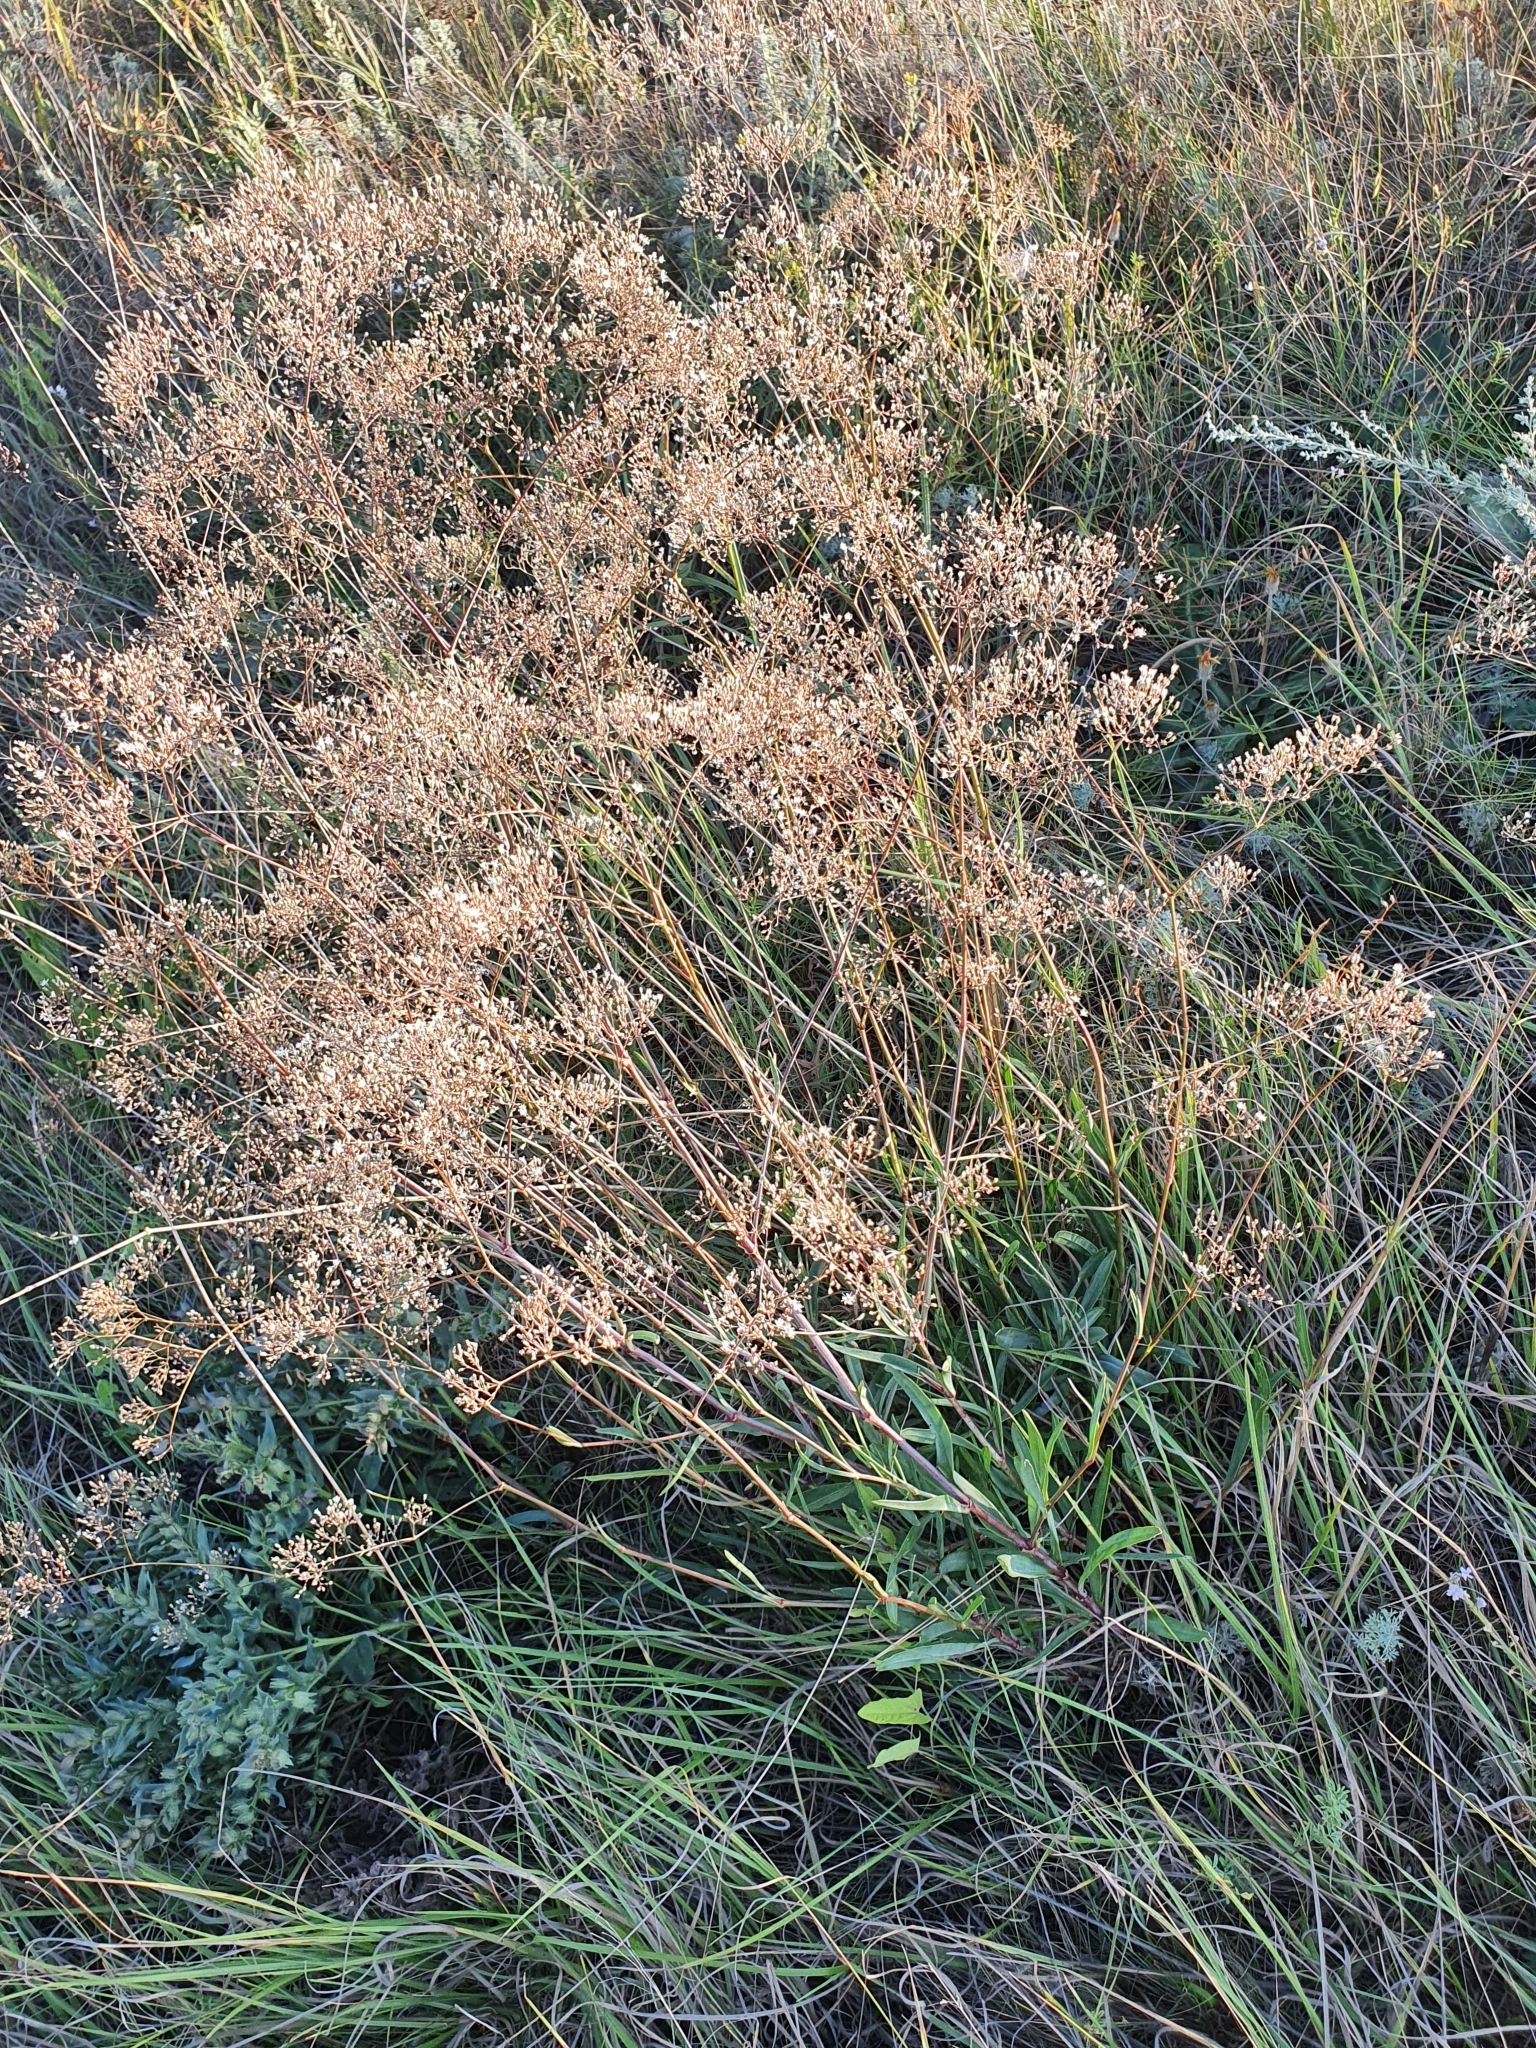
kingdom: Plantae
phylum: Tracheophyta
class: Magnoliopsida
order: Caryophyllales
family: Caryophyllaceae
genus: Gypsophila
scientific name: Gypsophila altissima
